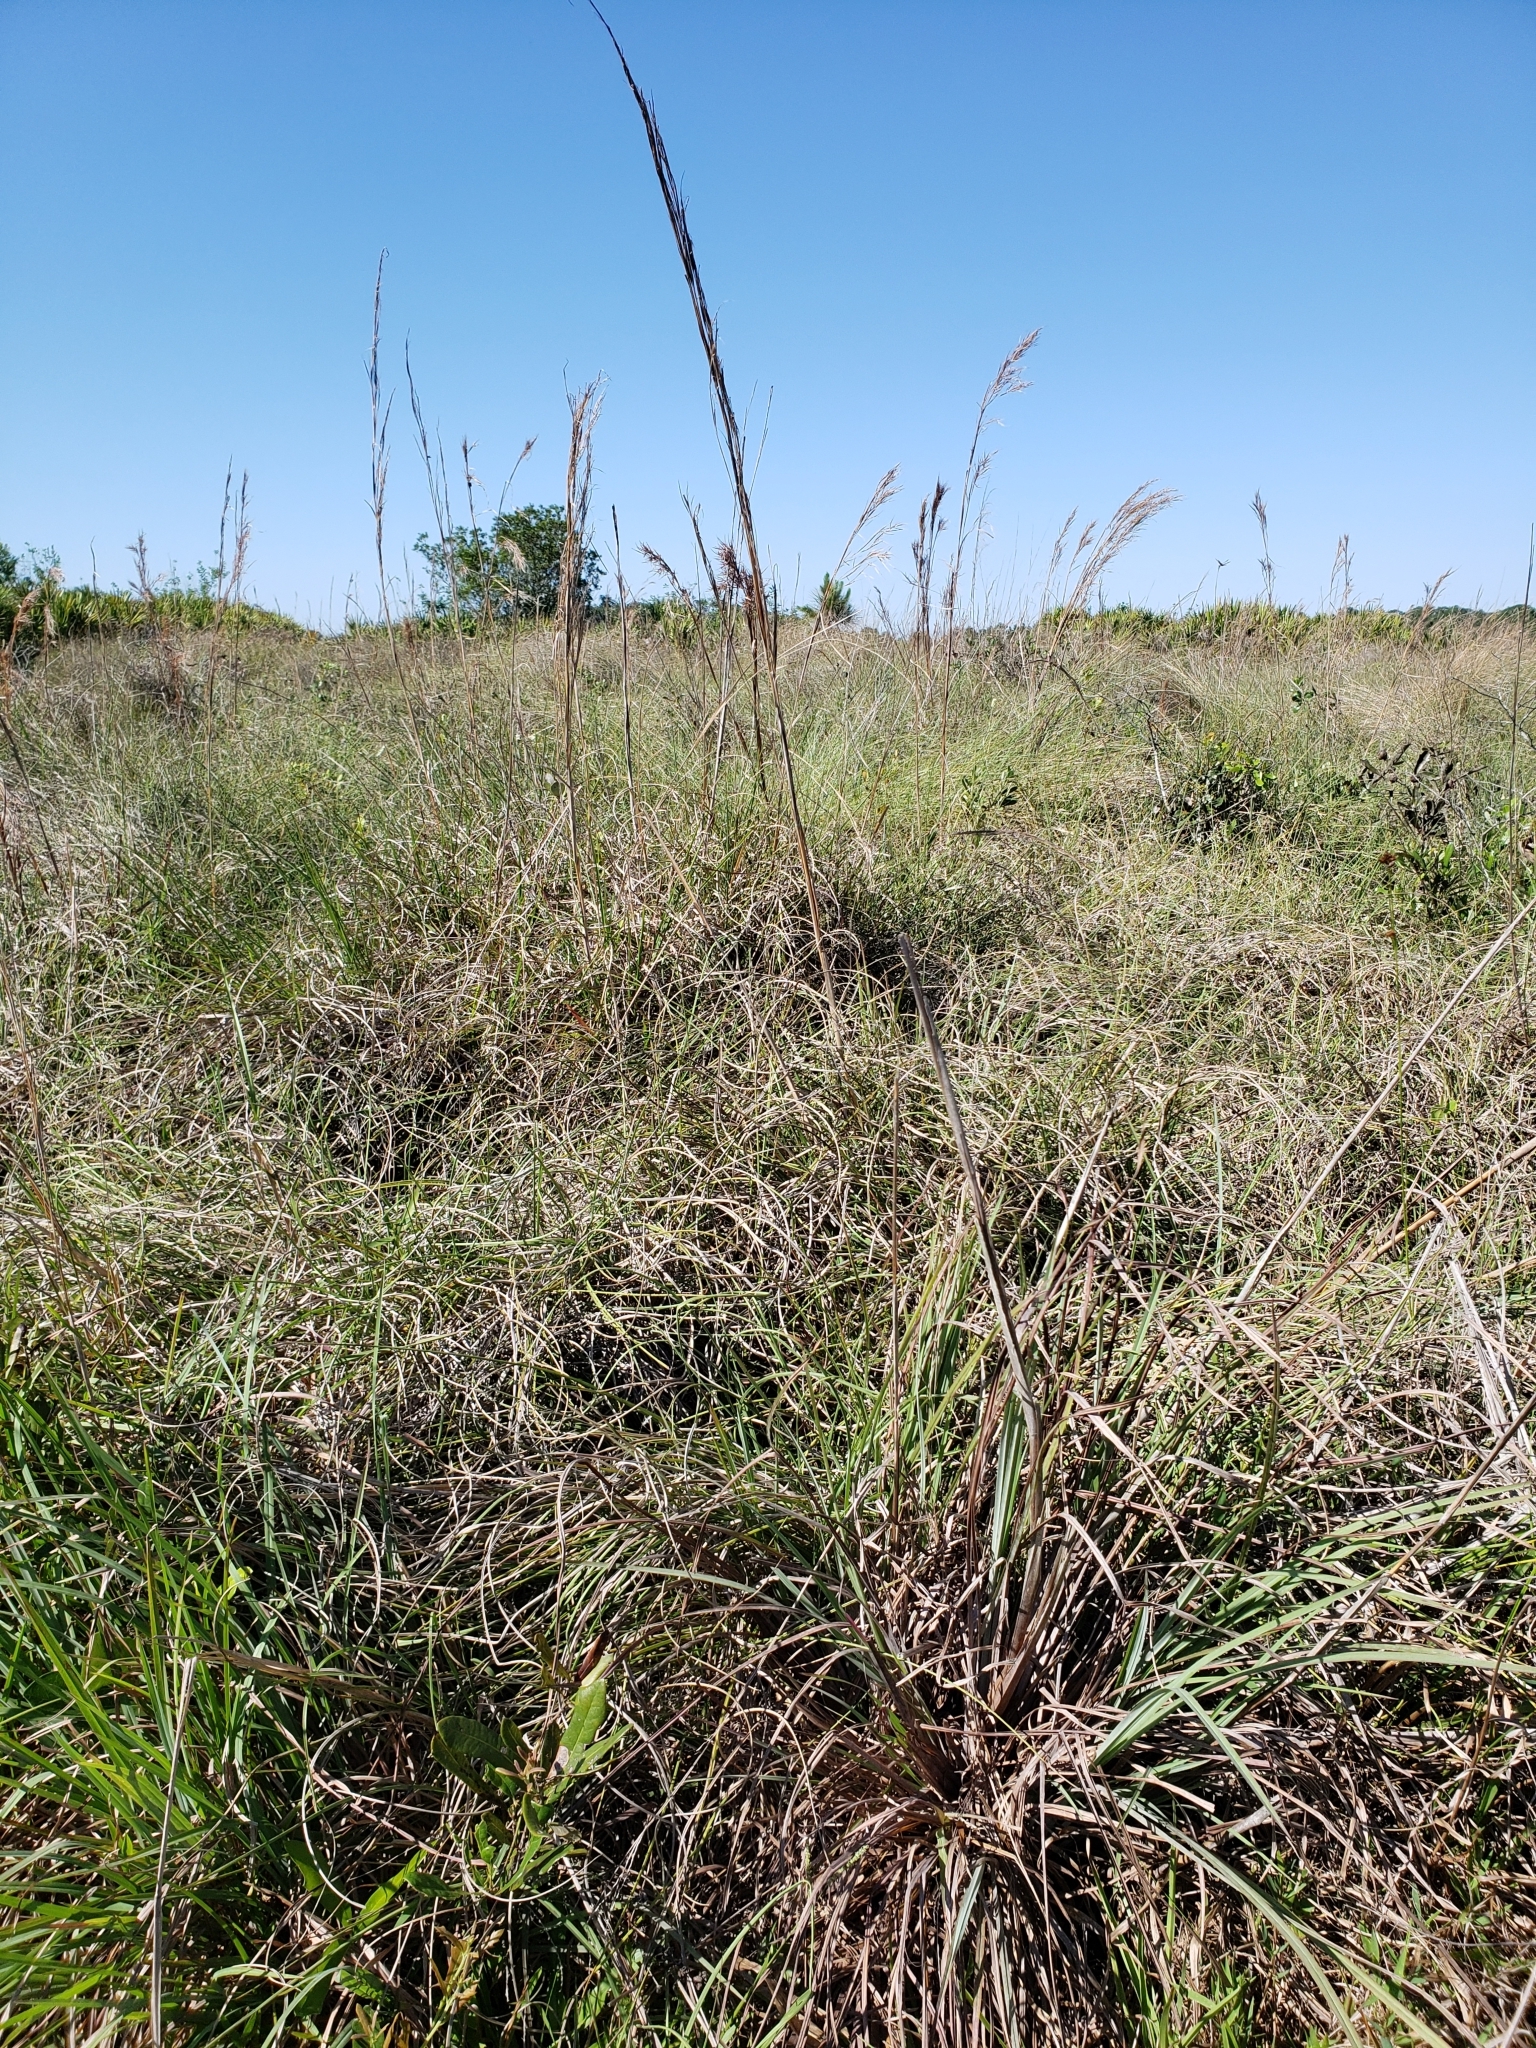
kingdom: Plantae
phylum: Tracheophyta
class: Liliopsida
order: Poales
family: Poaceae
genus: Coleataenia
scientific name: Coleataenia abscissa
